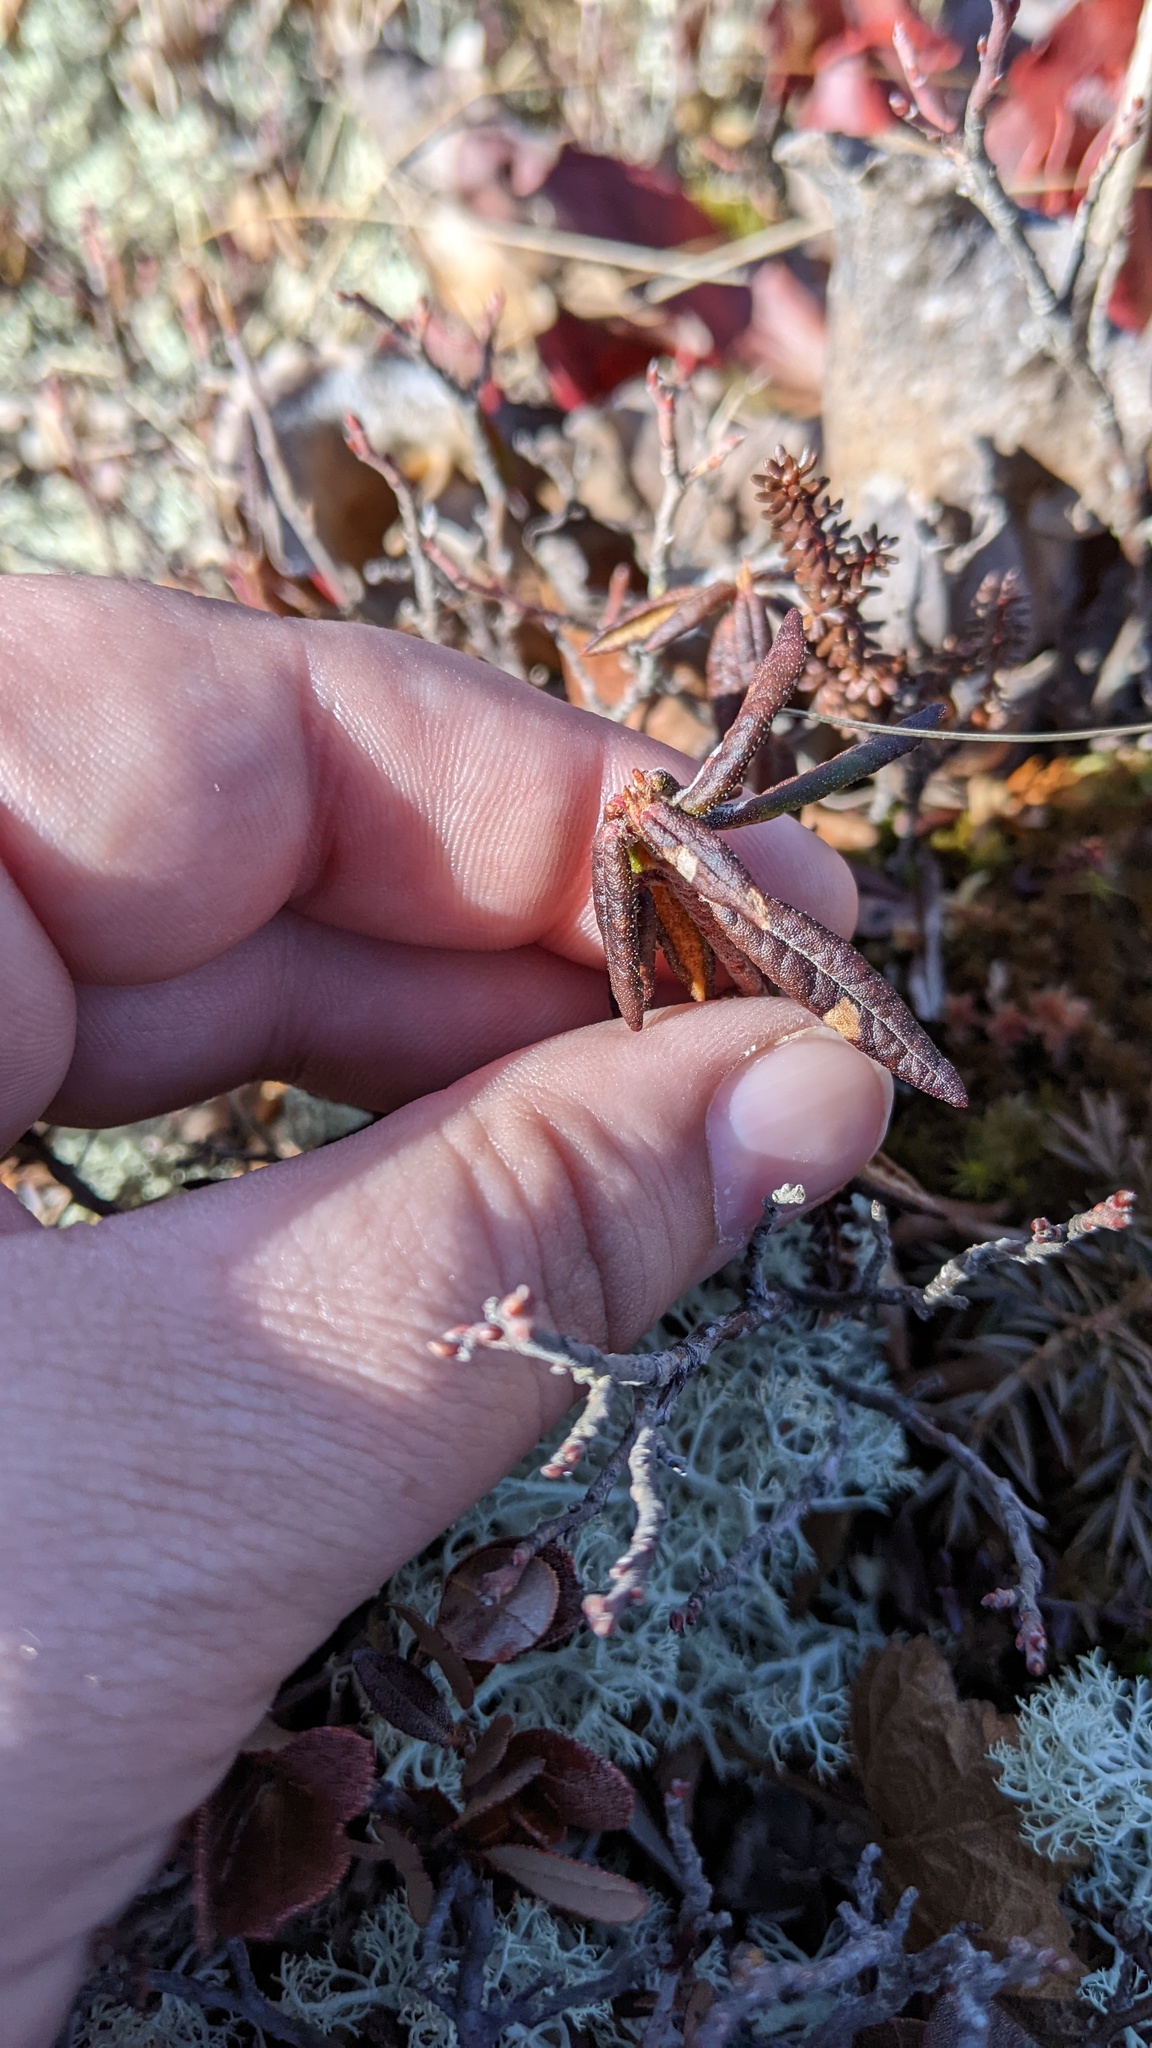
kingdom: Plantae
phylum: Tracheophyta
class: Magnoliopsida
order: Ericales
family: Ericaceae
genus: Rhododendron
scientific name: Rhododendron groenlandicum
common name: Bog labrador tea
